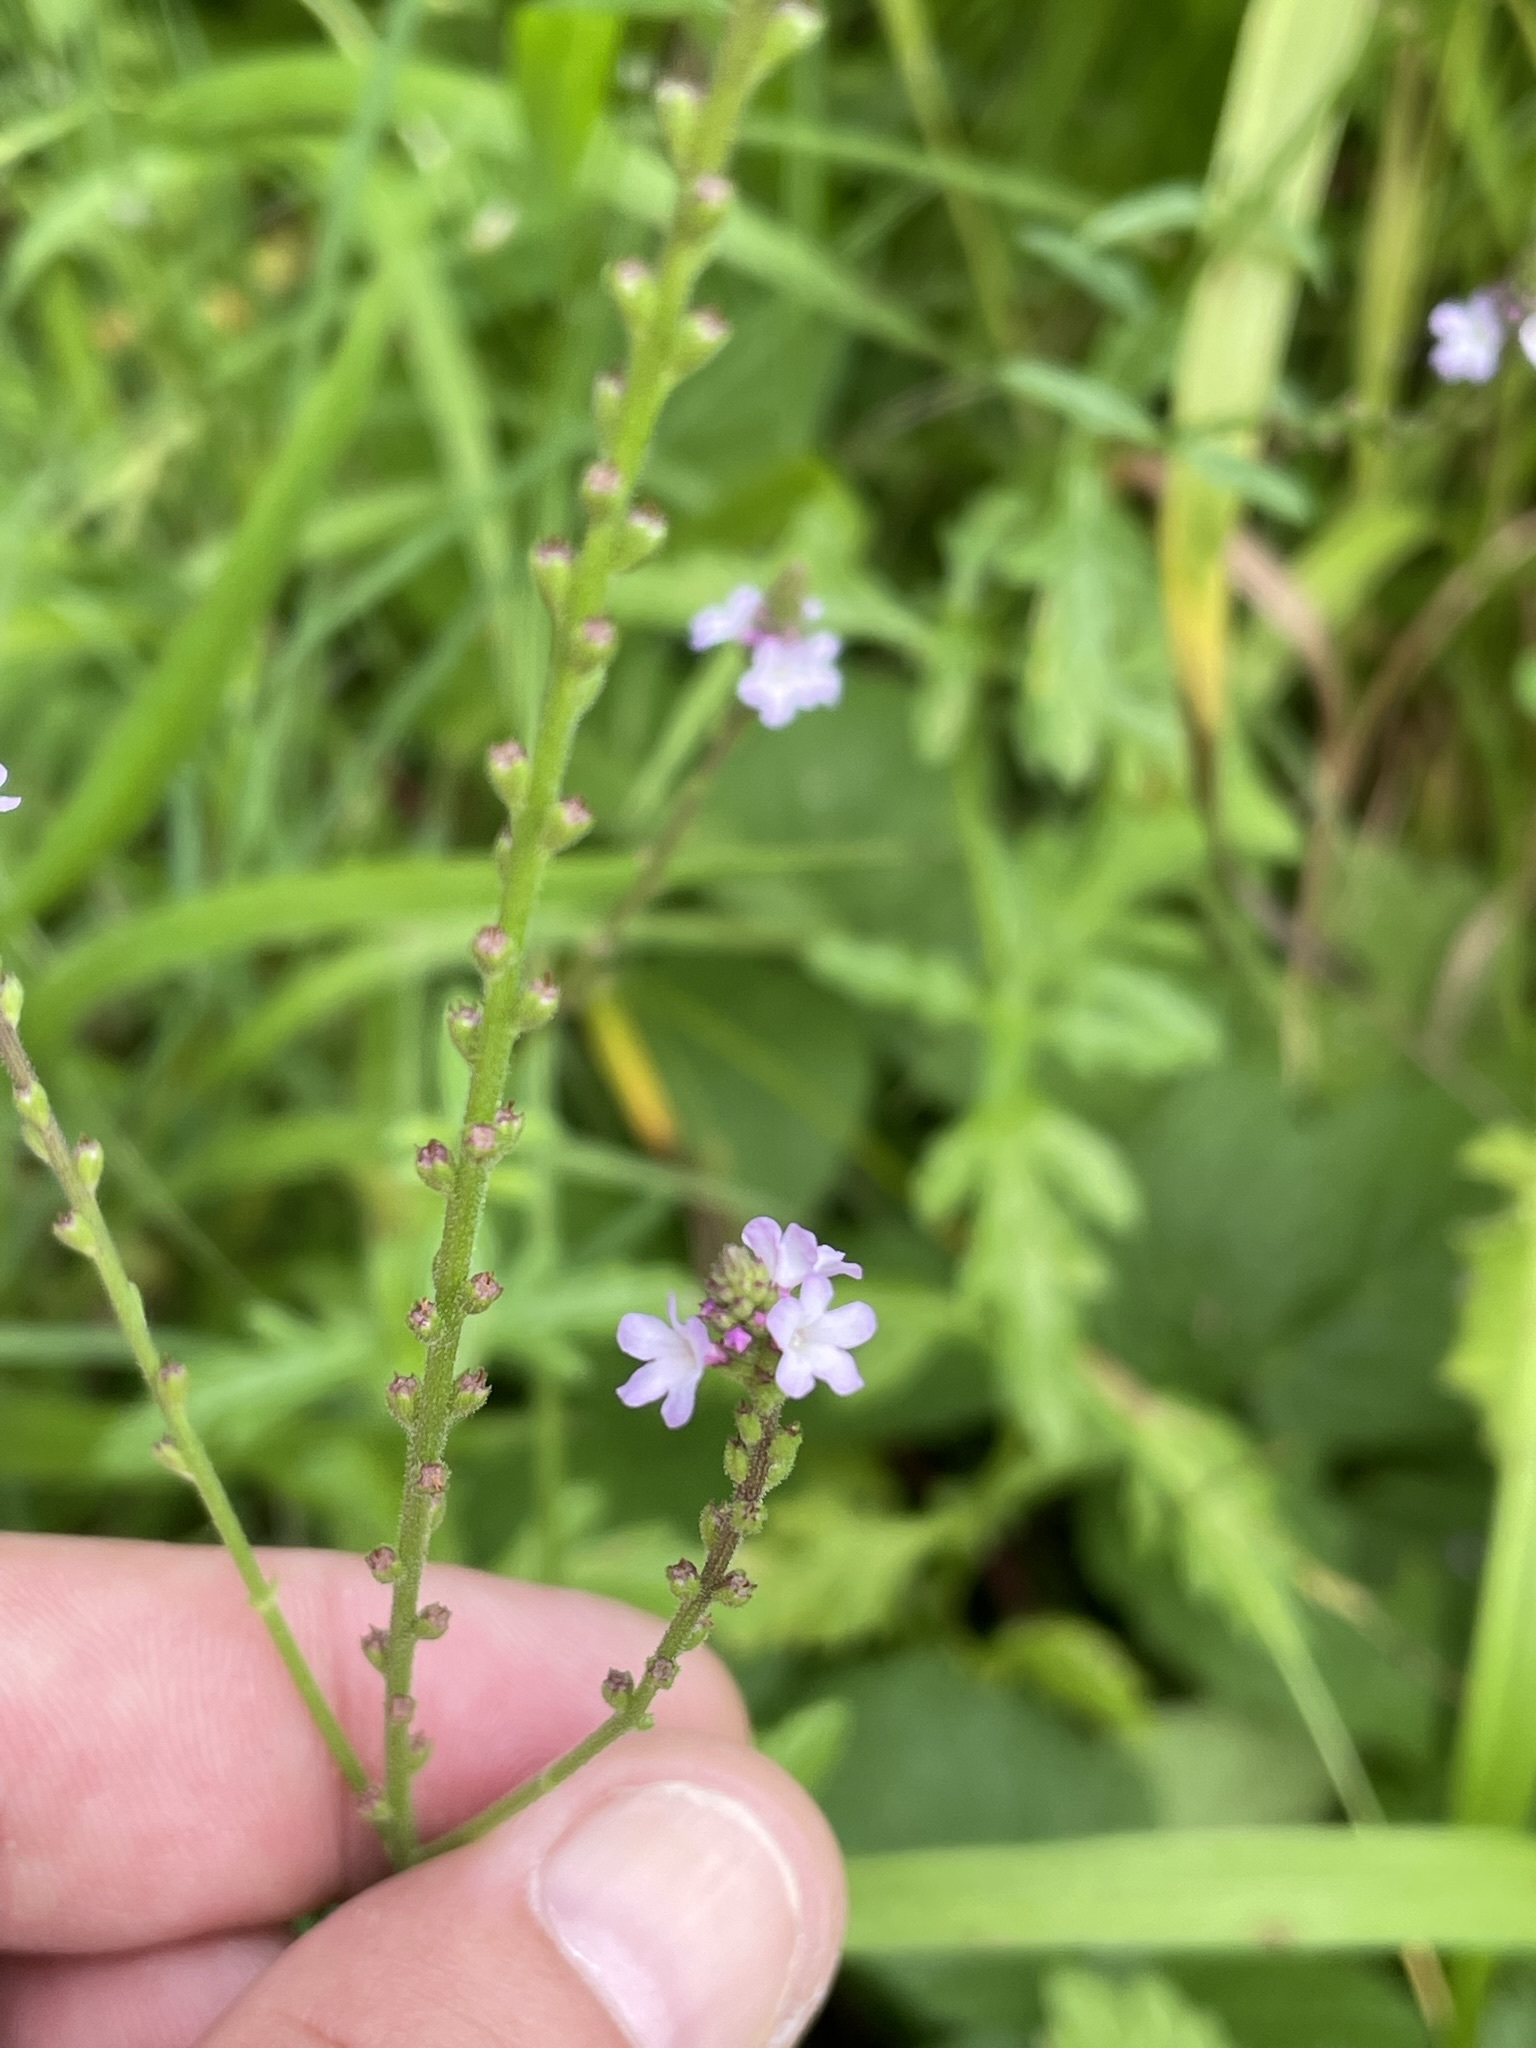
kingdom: Plantae
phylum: Tracheophyta
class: Magnoliopsida
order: Lamiales
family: Verbenaceae
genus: Verbena
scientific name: Verbena officinalis
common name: Vervain
